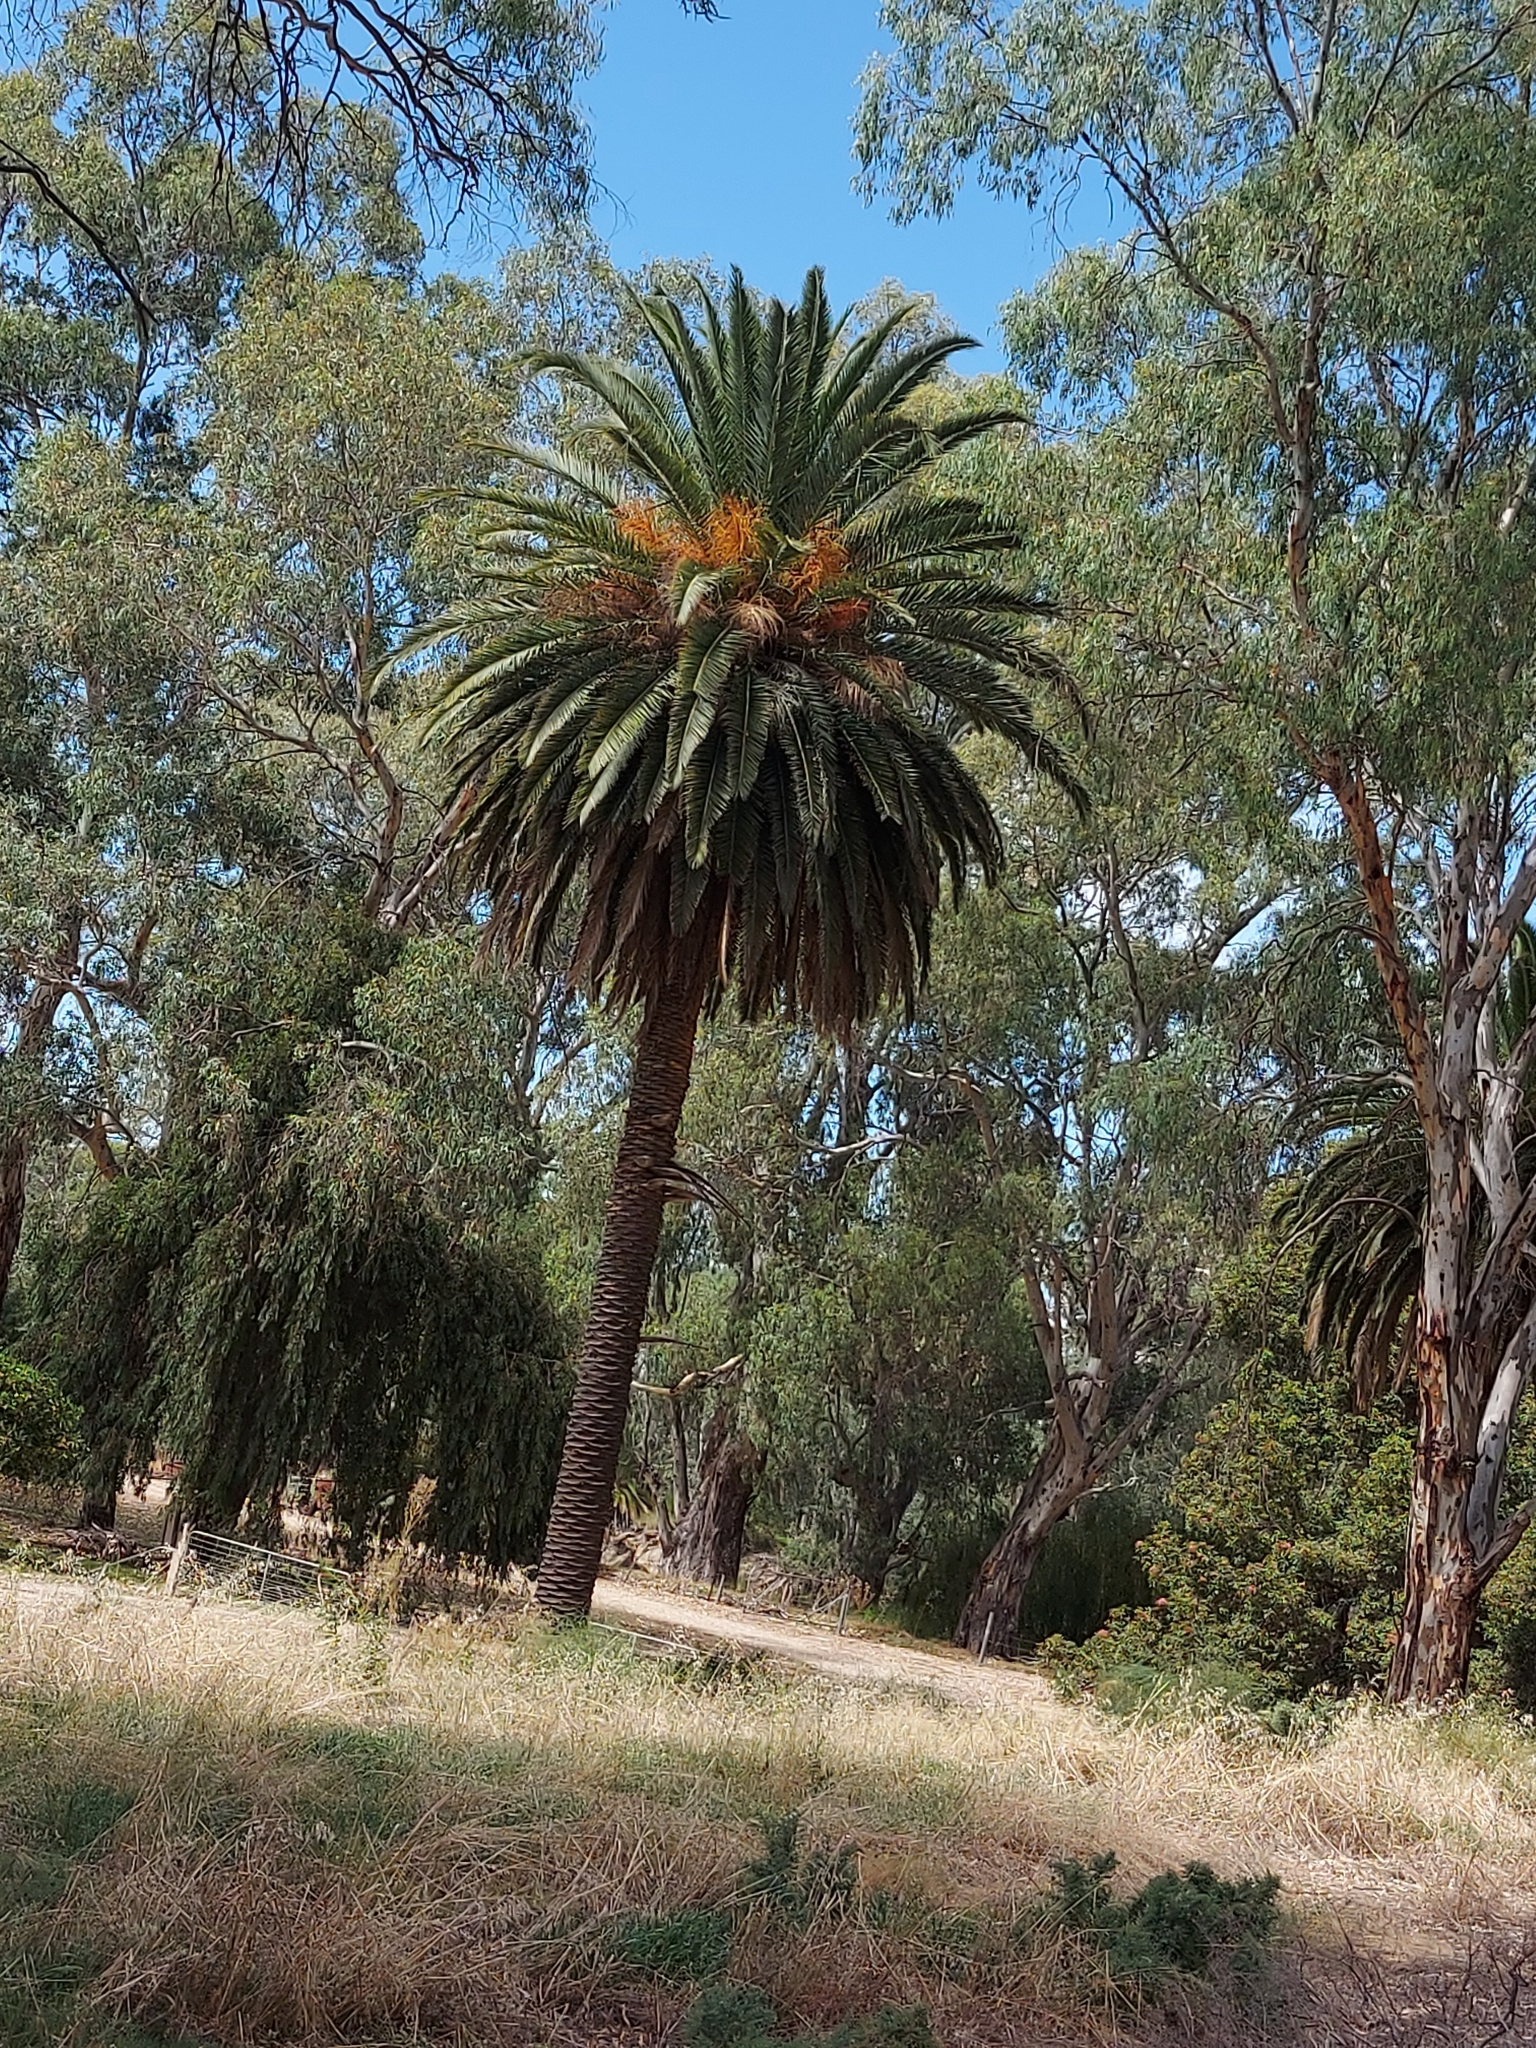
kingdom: Plantae
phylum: Tracheophyta
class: Liliopsida
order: Arecales
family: Arecaceae
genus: Phoenix
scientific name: Phoenix canariensis
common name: Canary island date palm
